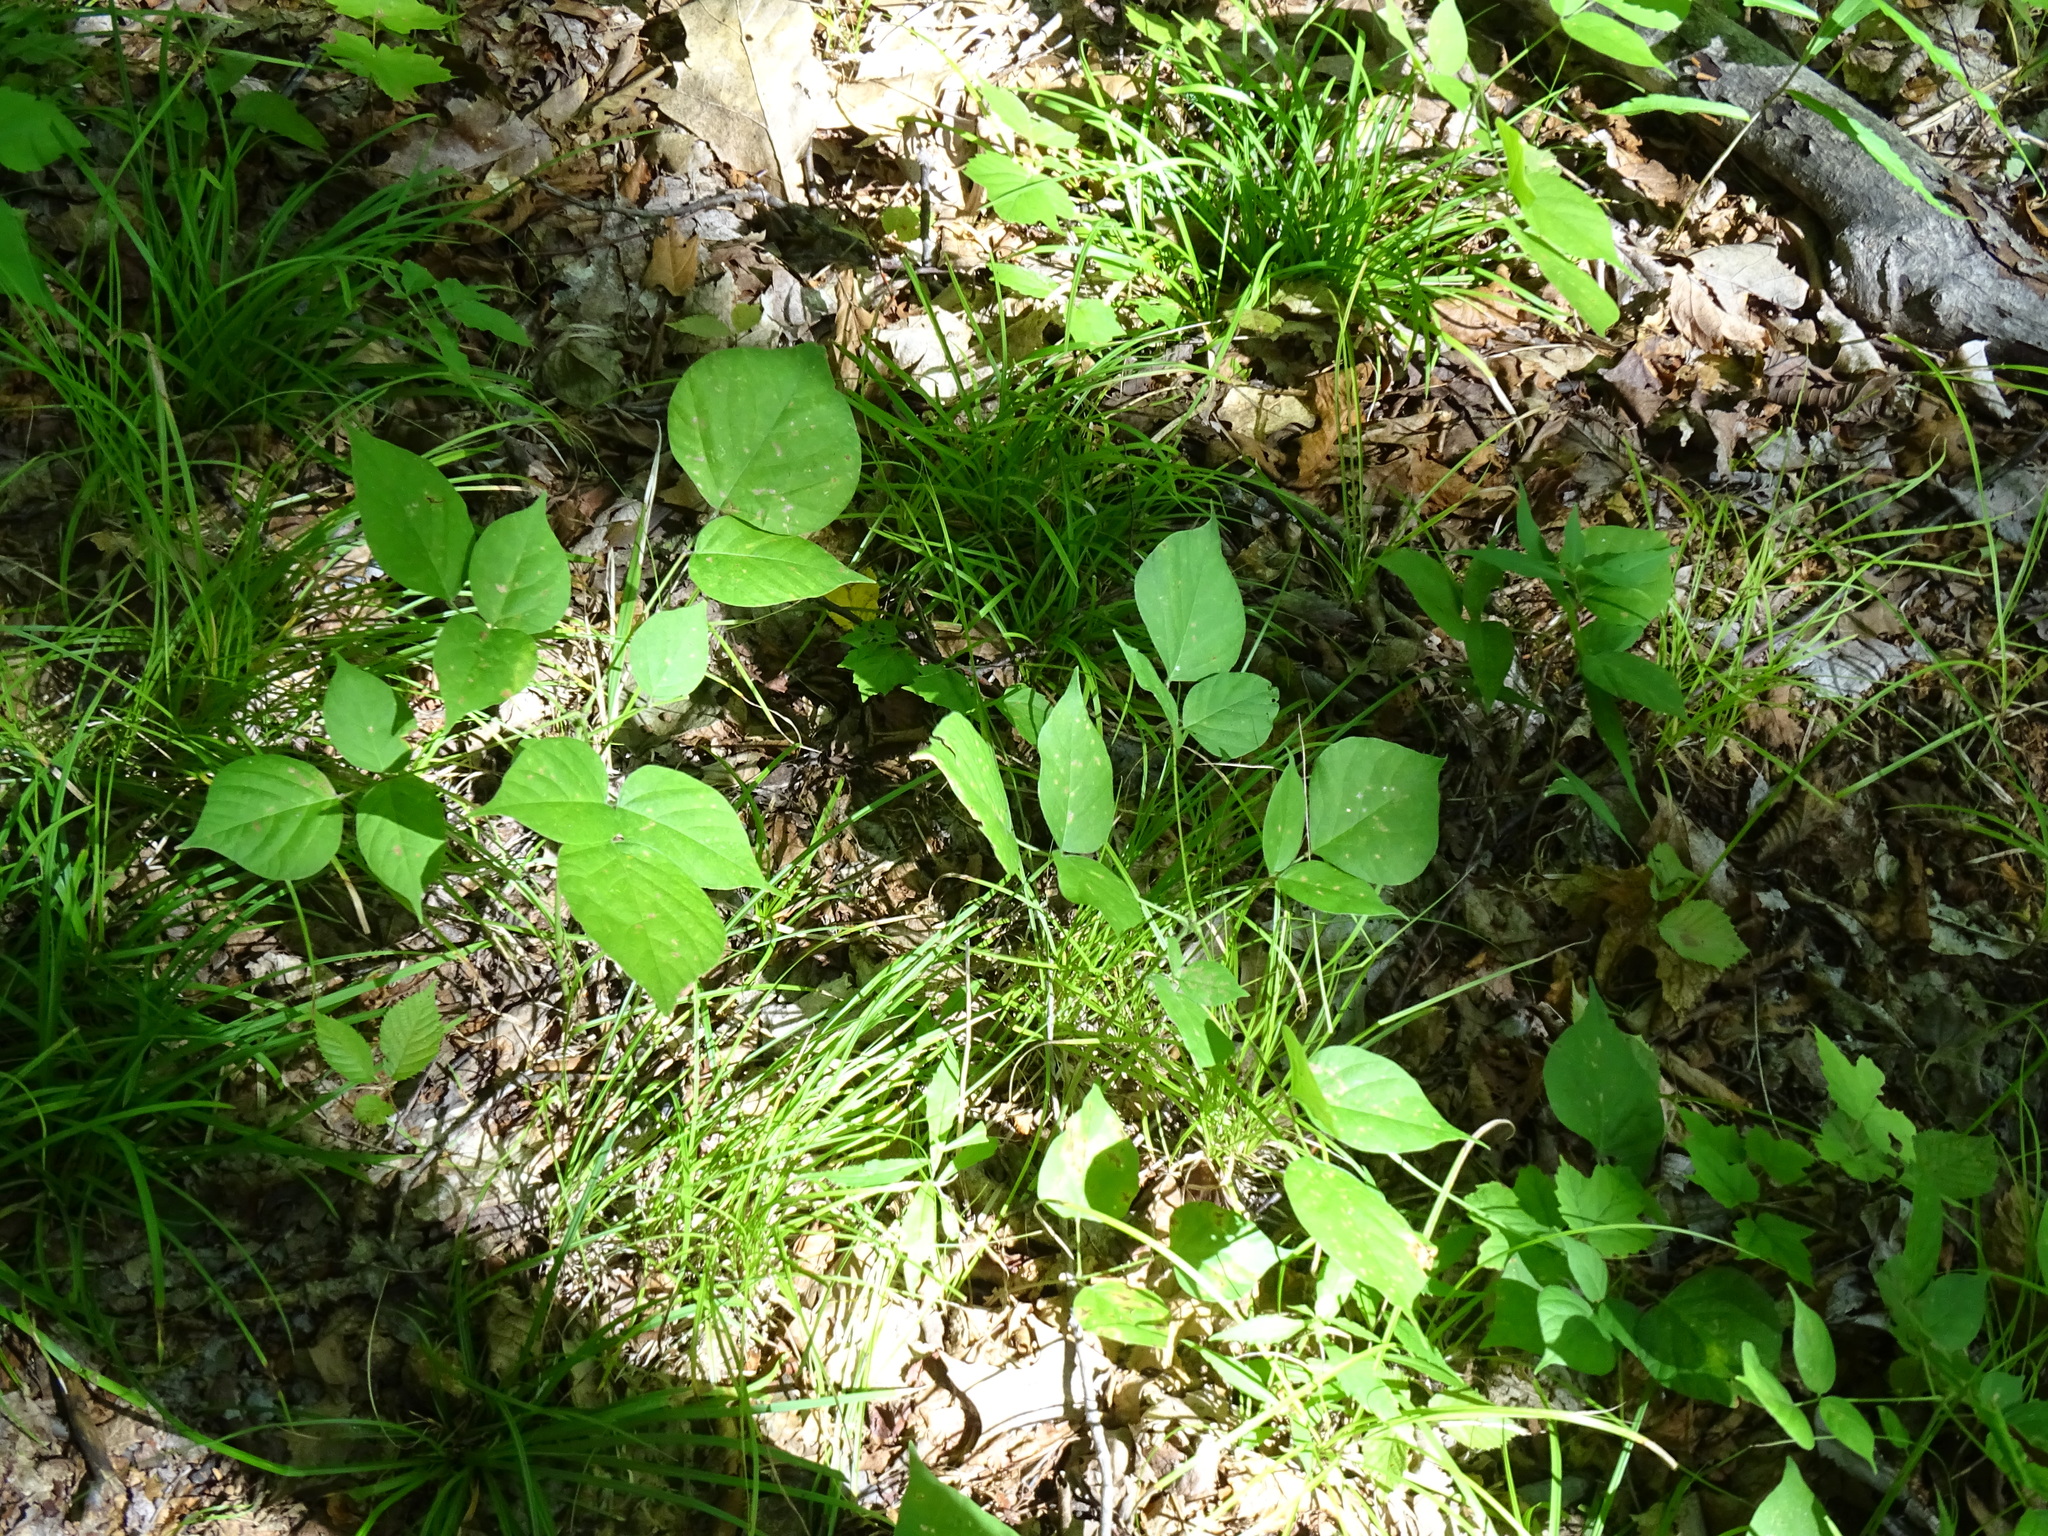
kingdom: Plantae
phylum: Tracheophyta
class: Magnoliopsida
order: Fabales
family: Fabaceae
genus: Hylodesmum
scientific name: Hylodesmum glutinosum
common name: Clustered-leaved tick-trefoil
